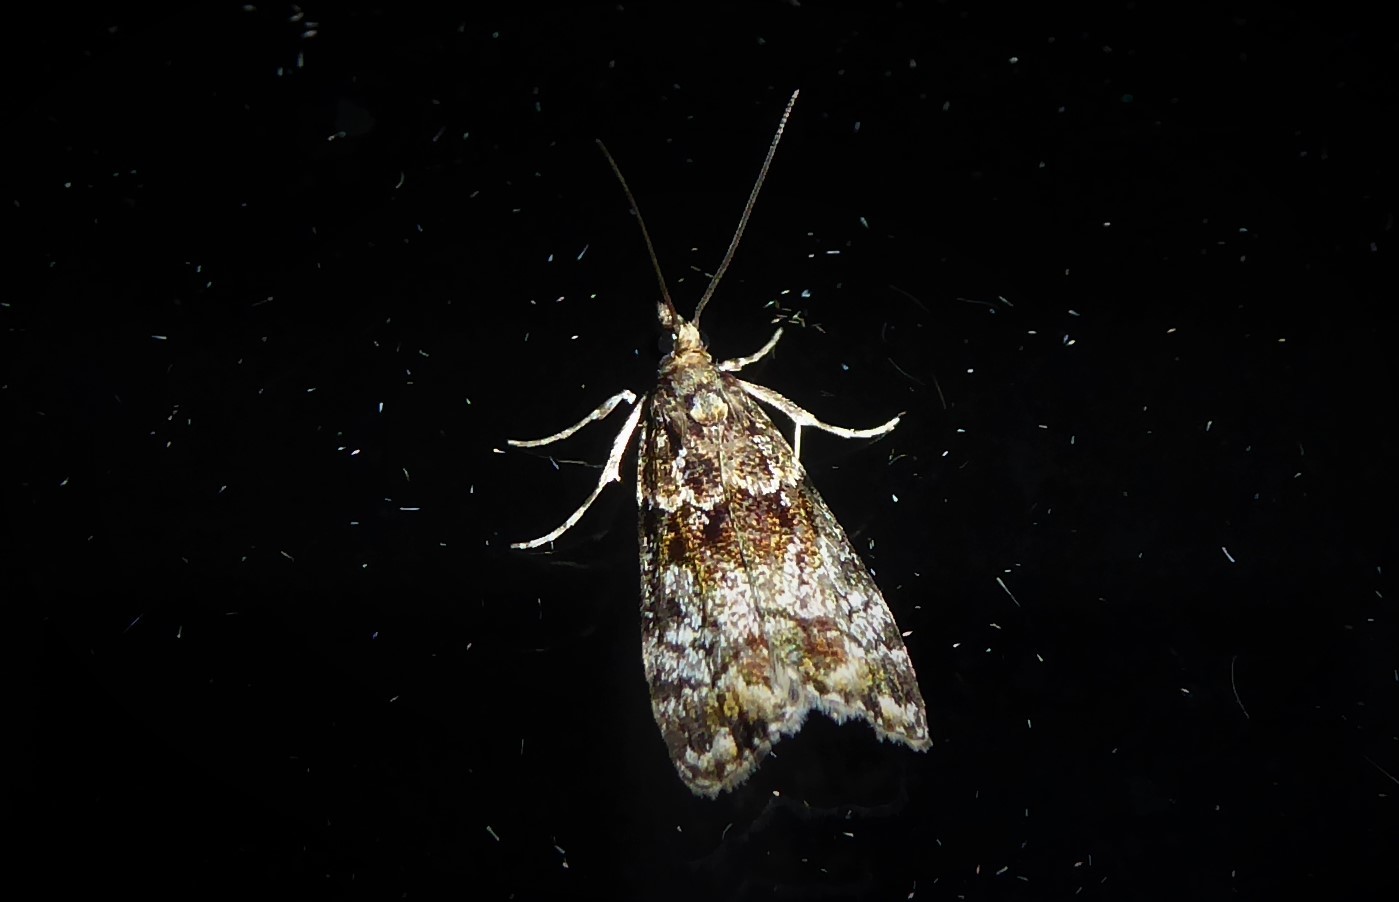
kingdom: Animalia
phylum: Arthropoda
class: Insecta
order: Lepidoptera
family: Crambidae
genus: Eudonia
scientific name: Eudonia minualis
